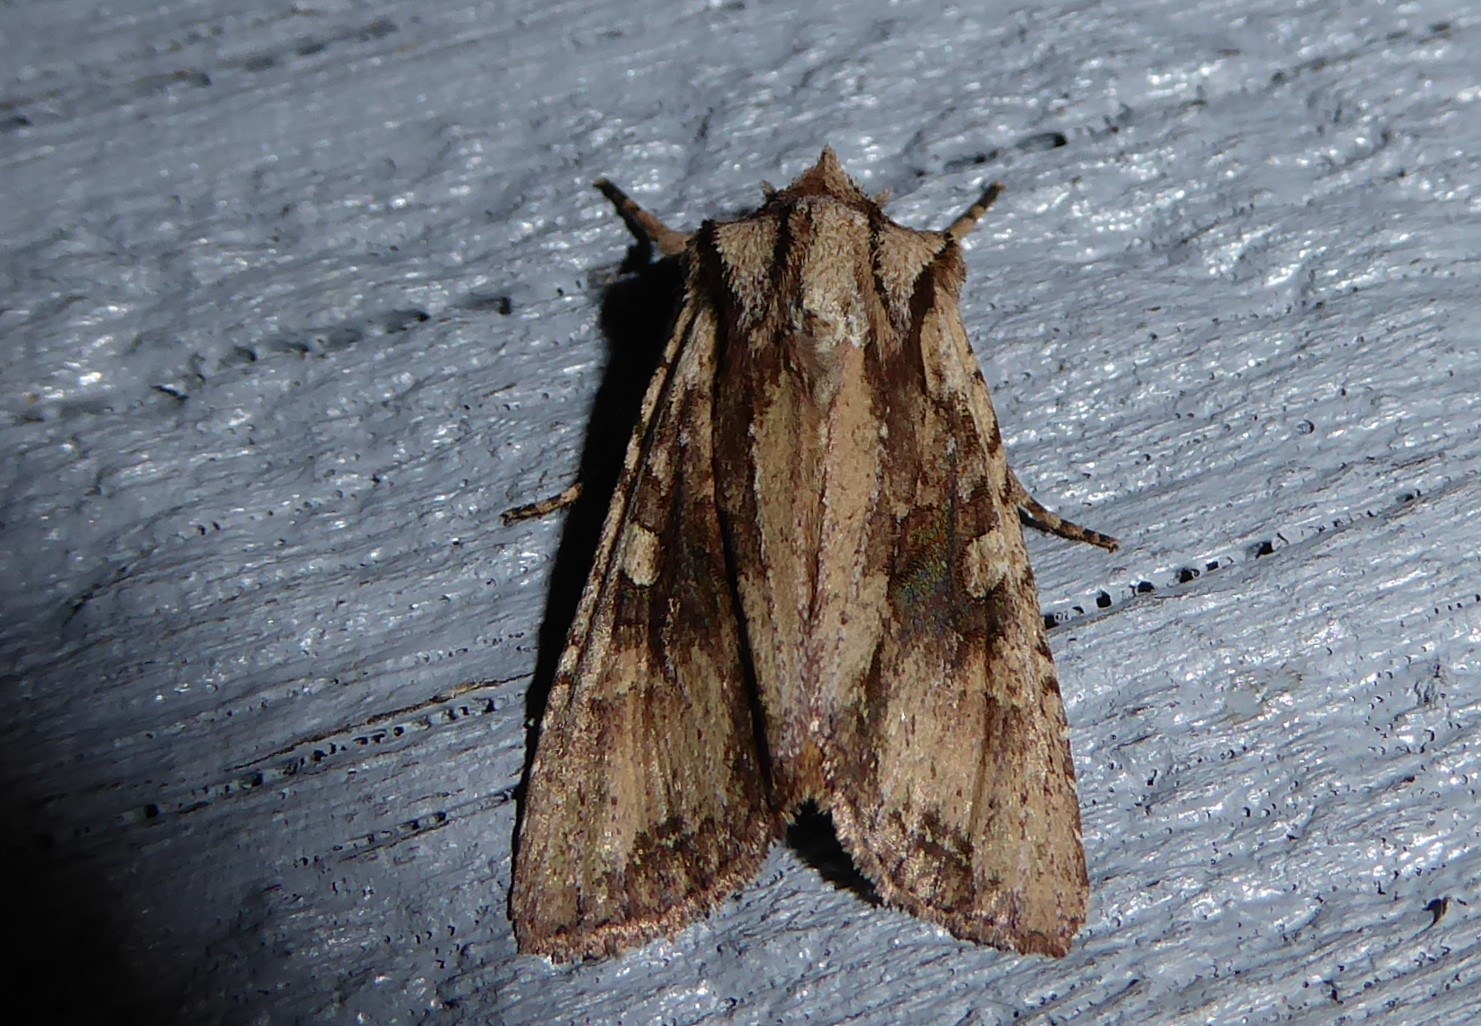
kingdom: Animalia
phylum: Arthropoda
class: Insecta
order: Lepidoptera
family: Noctuidae
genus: Ichneutica
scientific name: Ichneutica mutans
